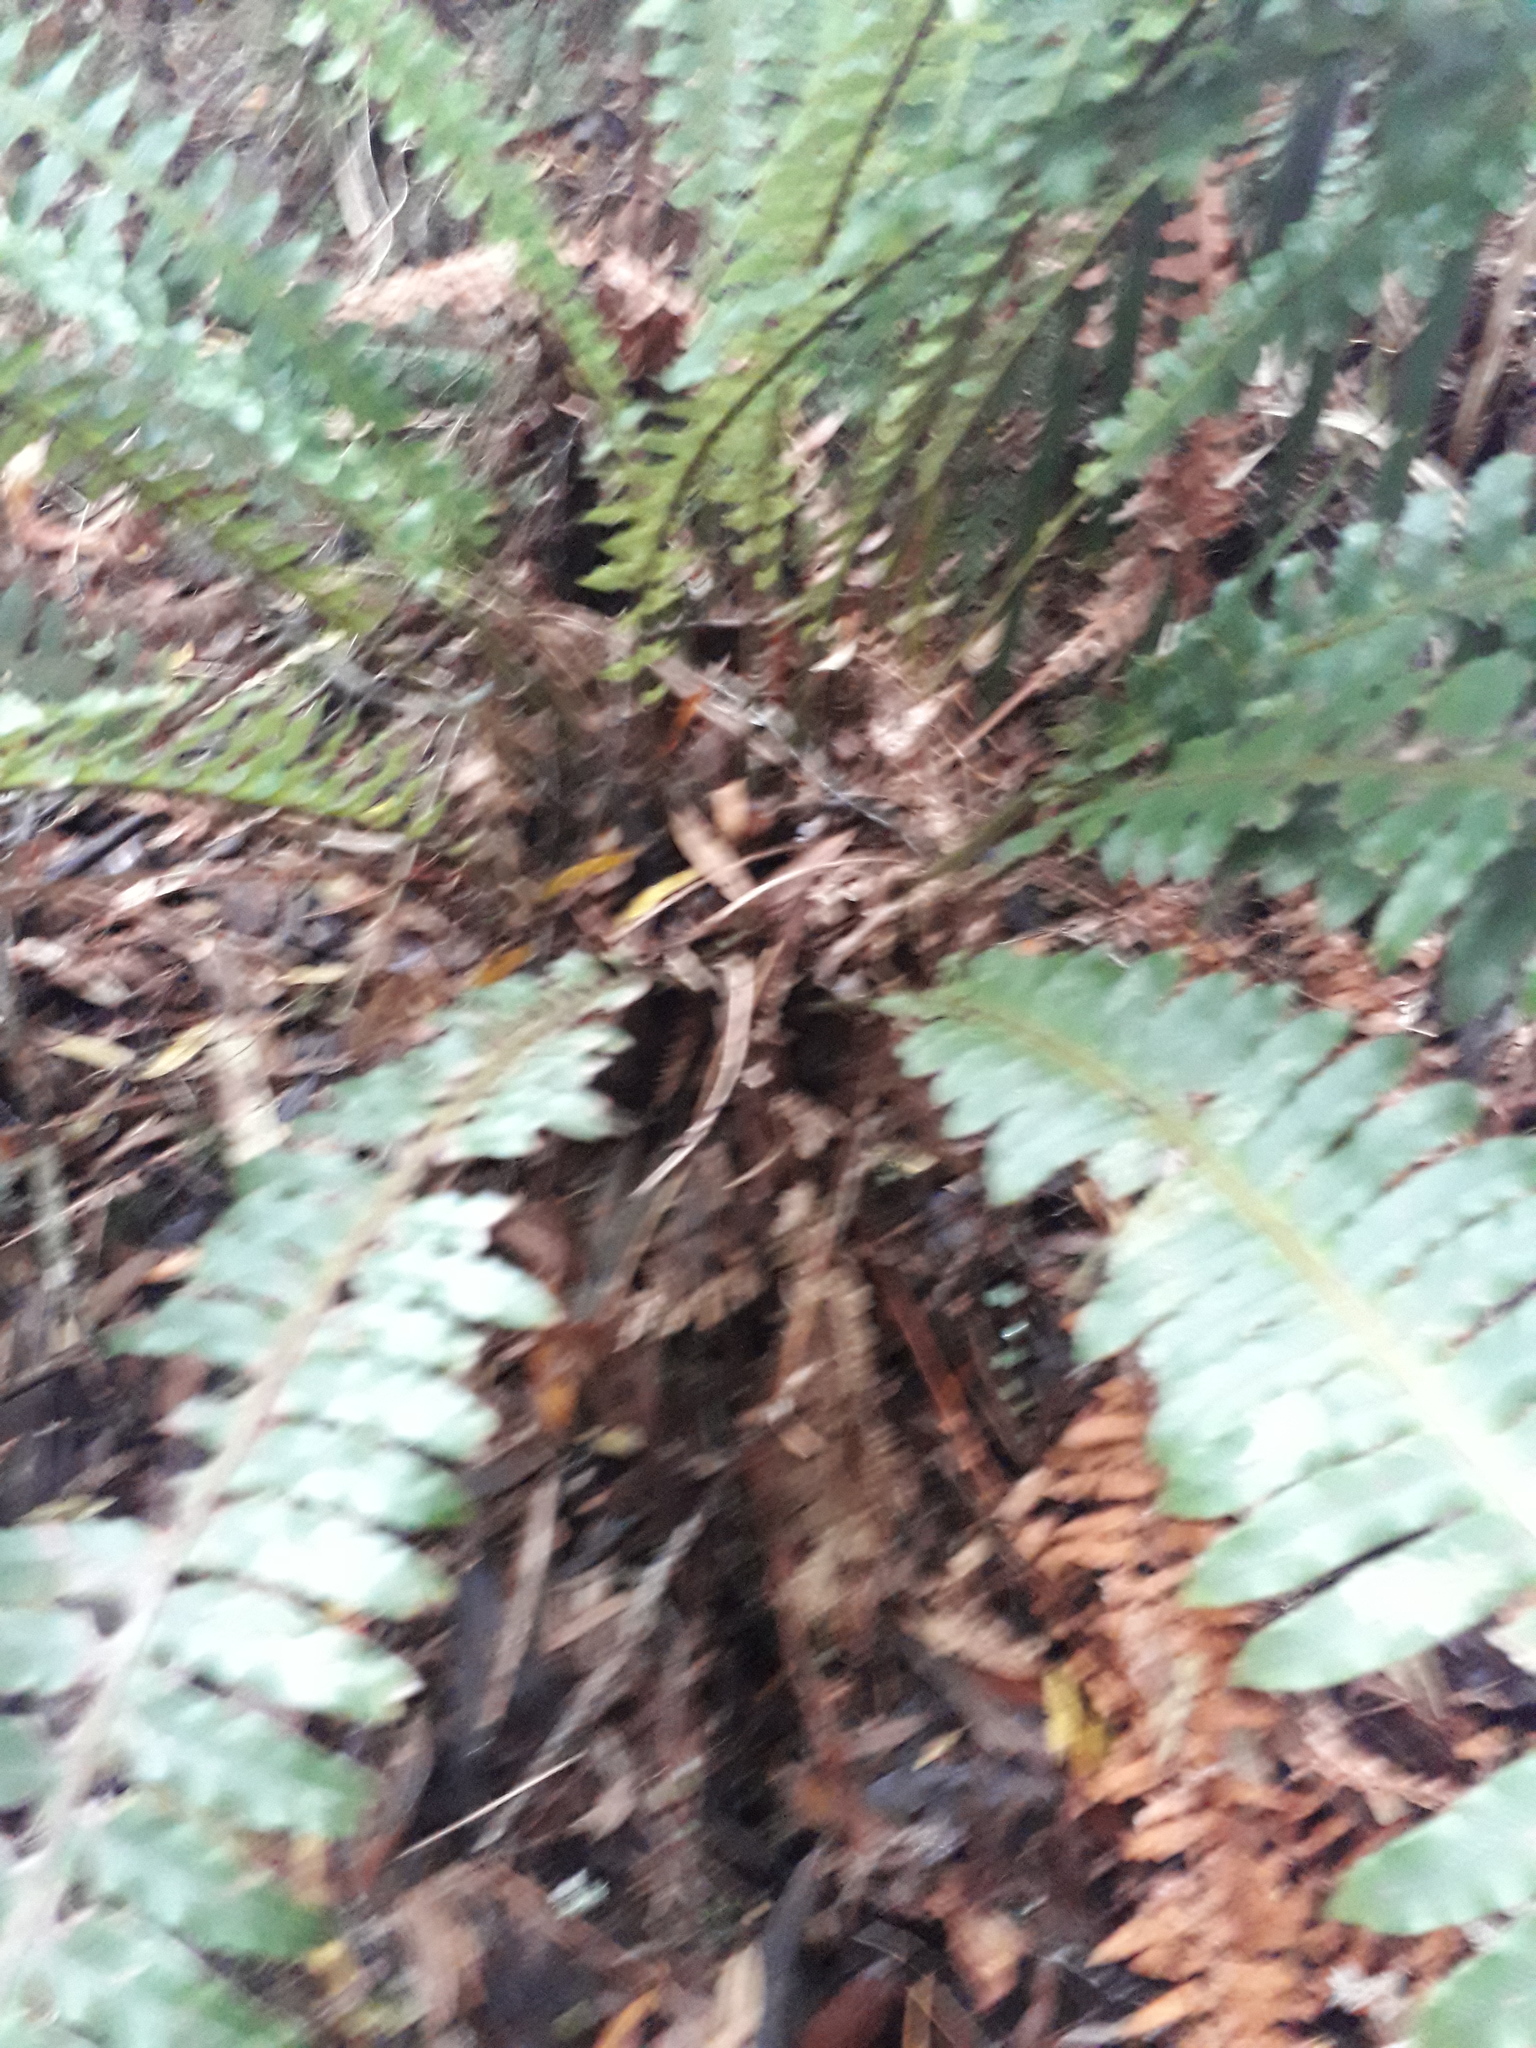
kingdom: Plantae
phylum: Tracheophyta
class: Polypodiopsida
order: Polypodiales
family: Blechnaceae
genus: Lomaria
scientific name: Lomaria discolor
